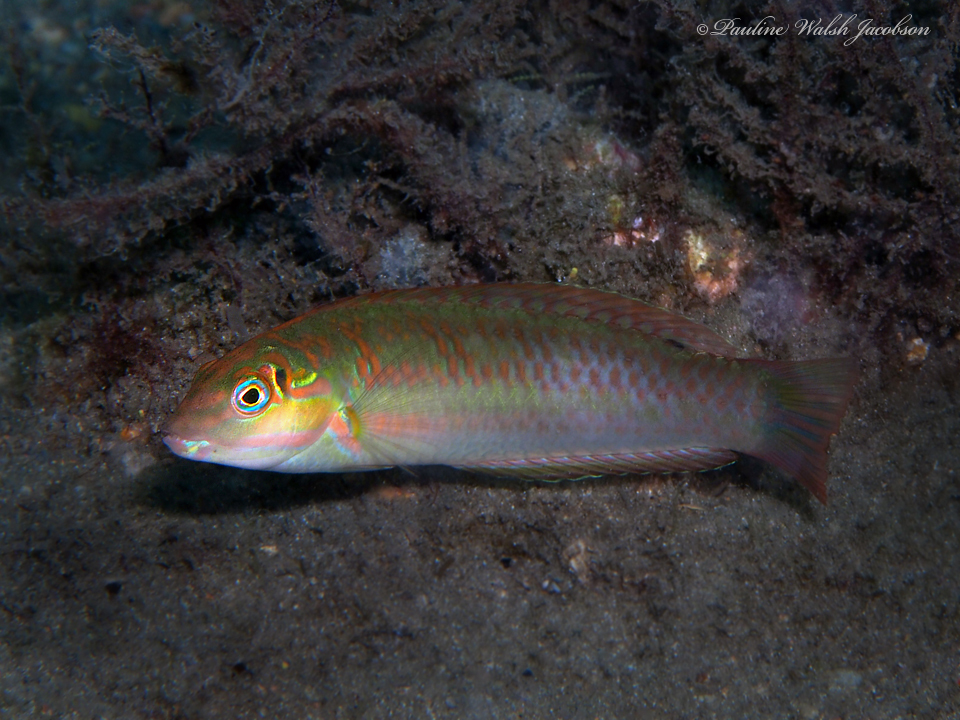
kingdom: Animalia
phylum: Chordata
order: Perciformes
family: Labridae
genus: Halichoeres
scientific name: Halichoeres poeyi
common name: Blackear wrasse
